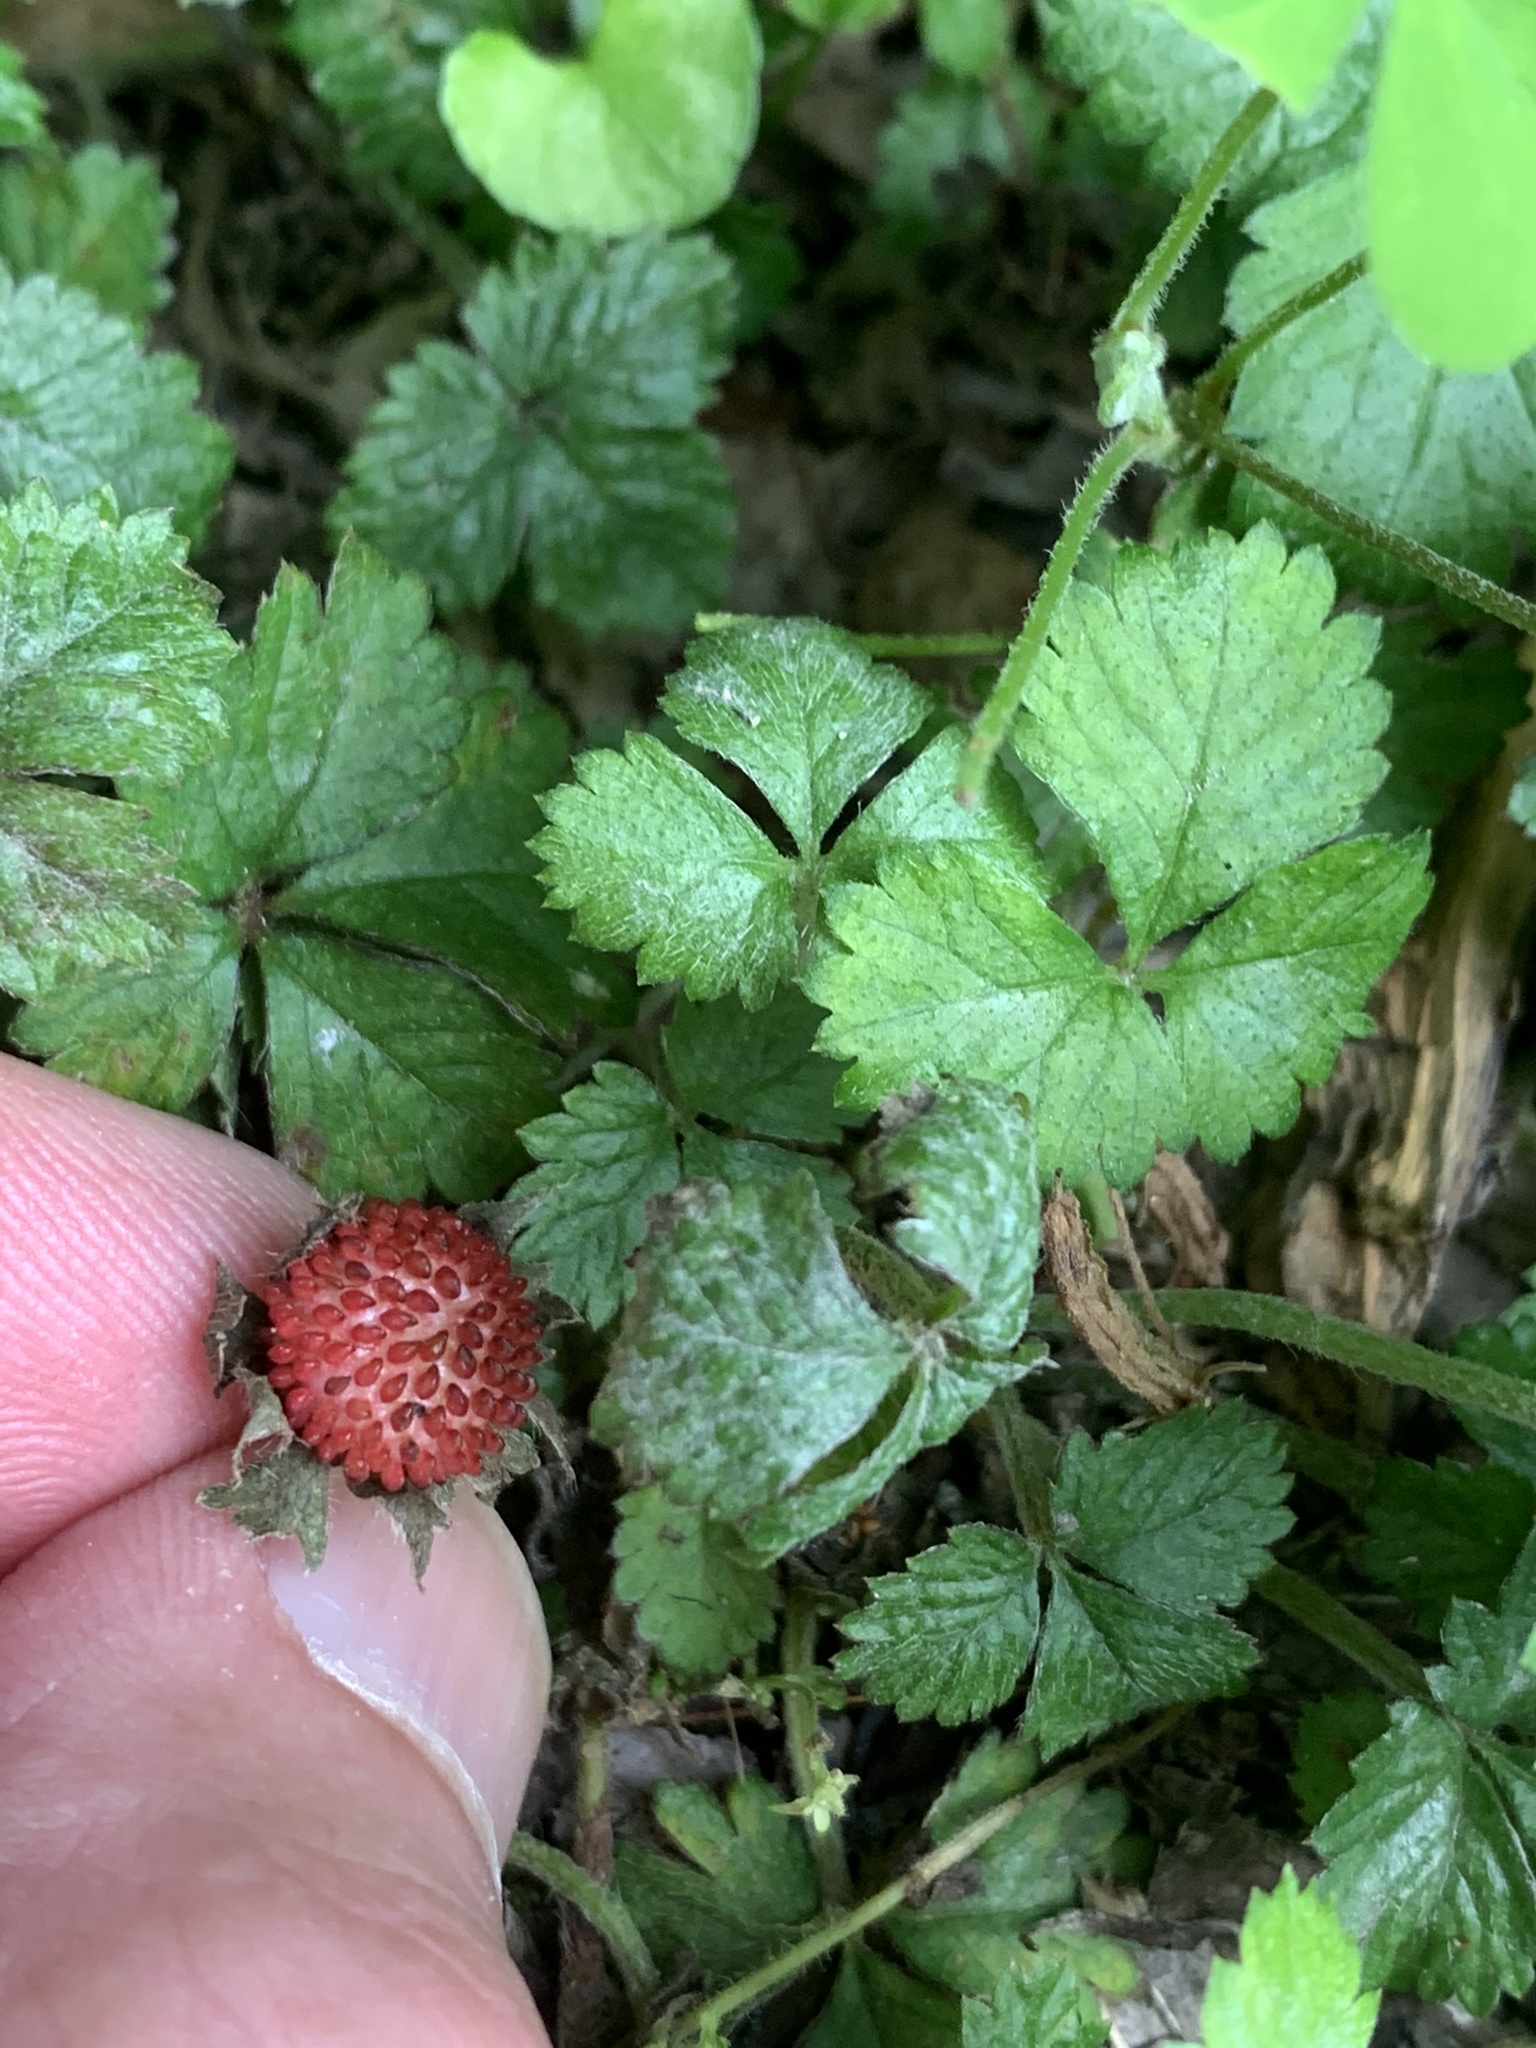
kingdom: Plantae
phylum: Tracheophyta
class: Magnoliopsida
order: Rosales
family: Rosaceae
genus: Potentilla
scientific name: Potentilla indica
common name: Yellow-flowered strawberry
